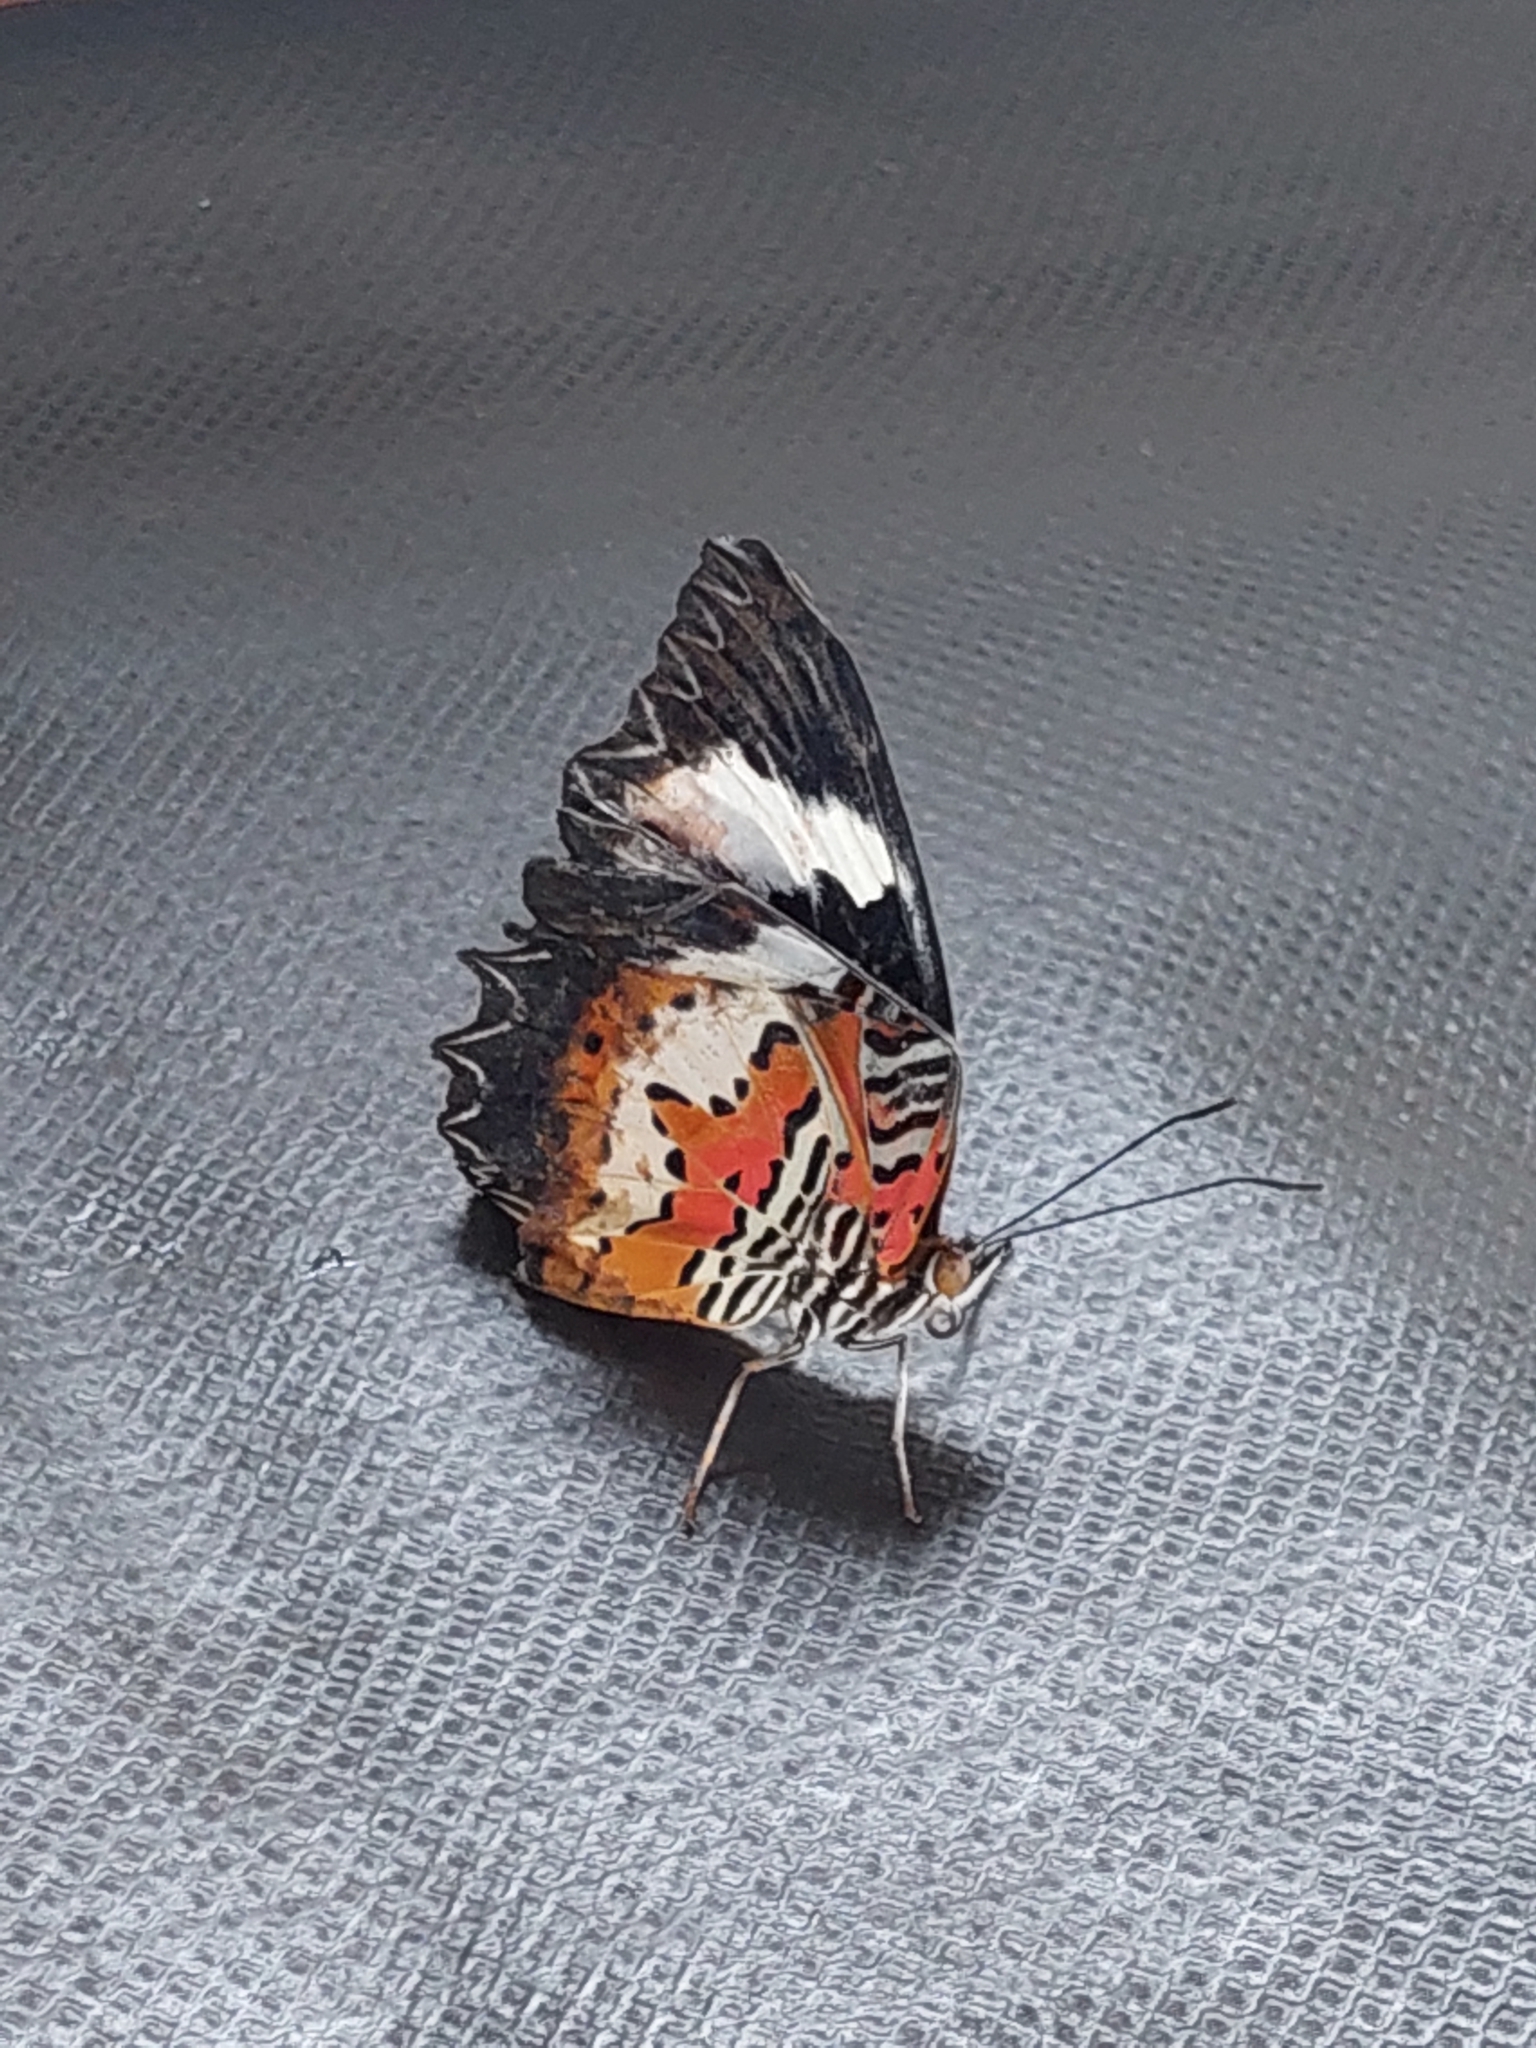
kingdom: Animalia
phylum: Arthropoda
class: Insecta
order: Lepidoptera
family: Nymphalidae
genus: Cethosia
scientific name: Cethosia hypsea
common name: Malayan lacewing butterfly
